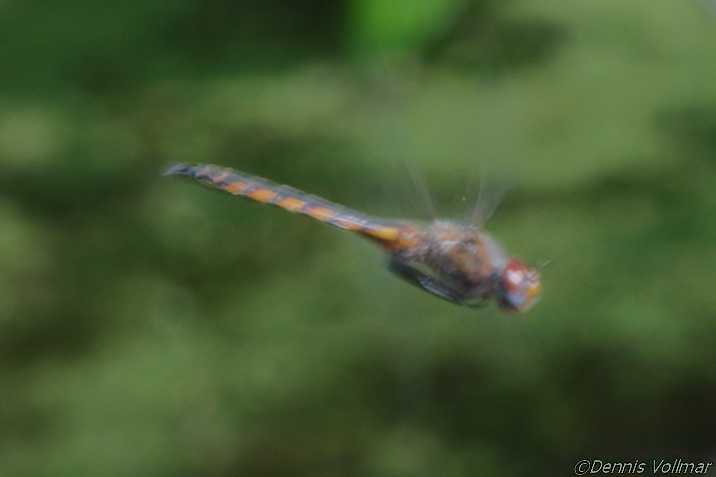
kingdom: Animalia
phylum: Arthropoda
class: Insecta
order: Odonata
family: Corduliidae
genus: Epitheca
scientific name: Epitheca cynosura
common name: Common baskettail
